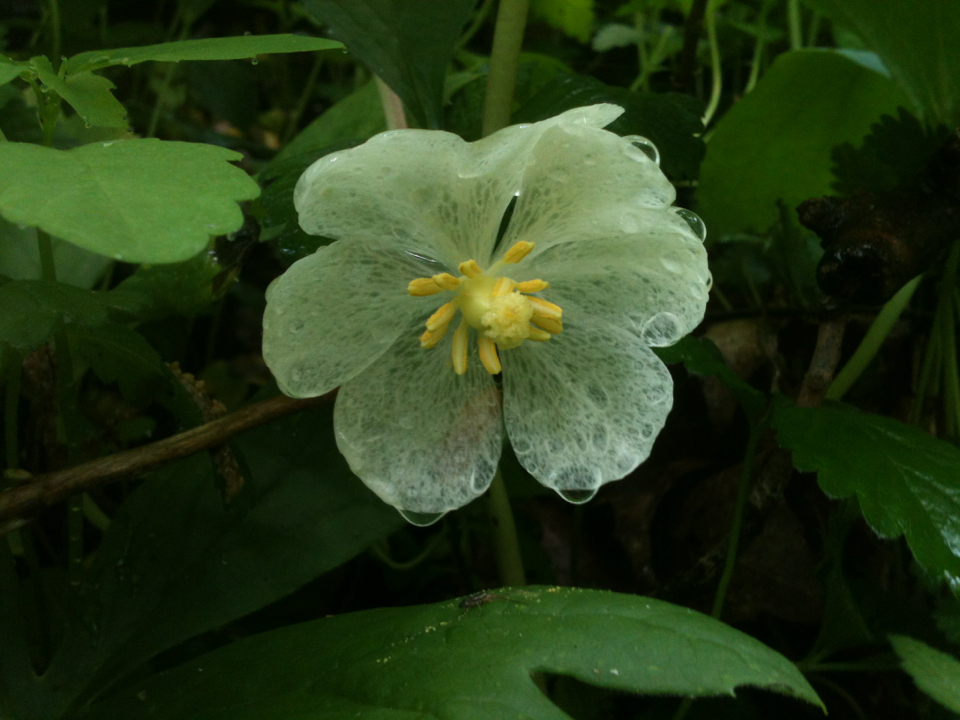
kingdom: Plantae
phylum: Tracheophyta
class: Magnoliopsida
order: Ranunculales
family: Berberidaceae
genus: Podophyllum
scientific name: Podophyllum peltatum
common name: Wild mandrake
